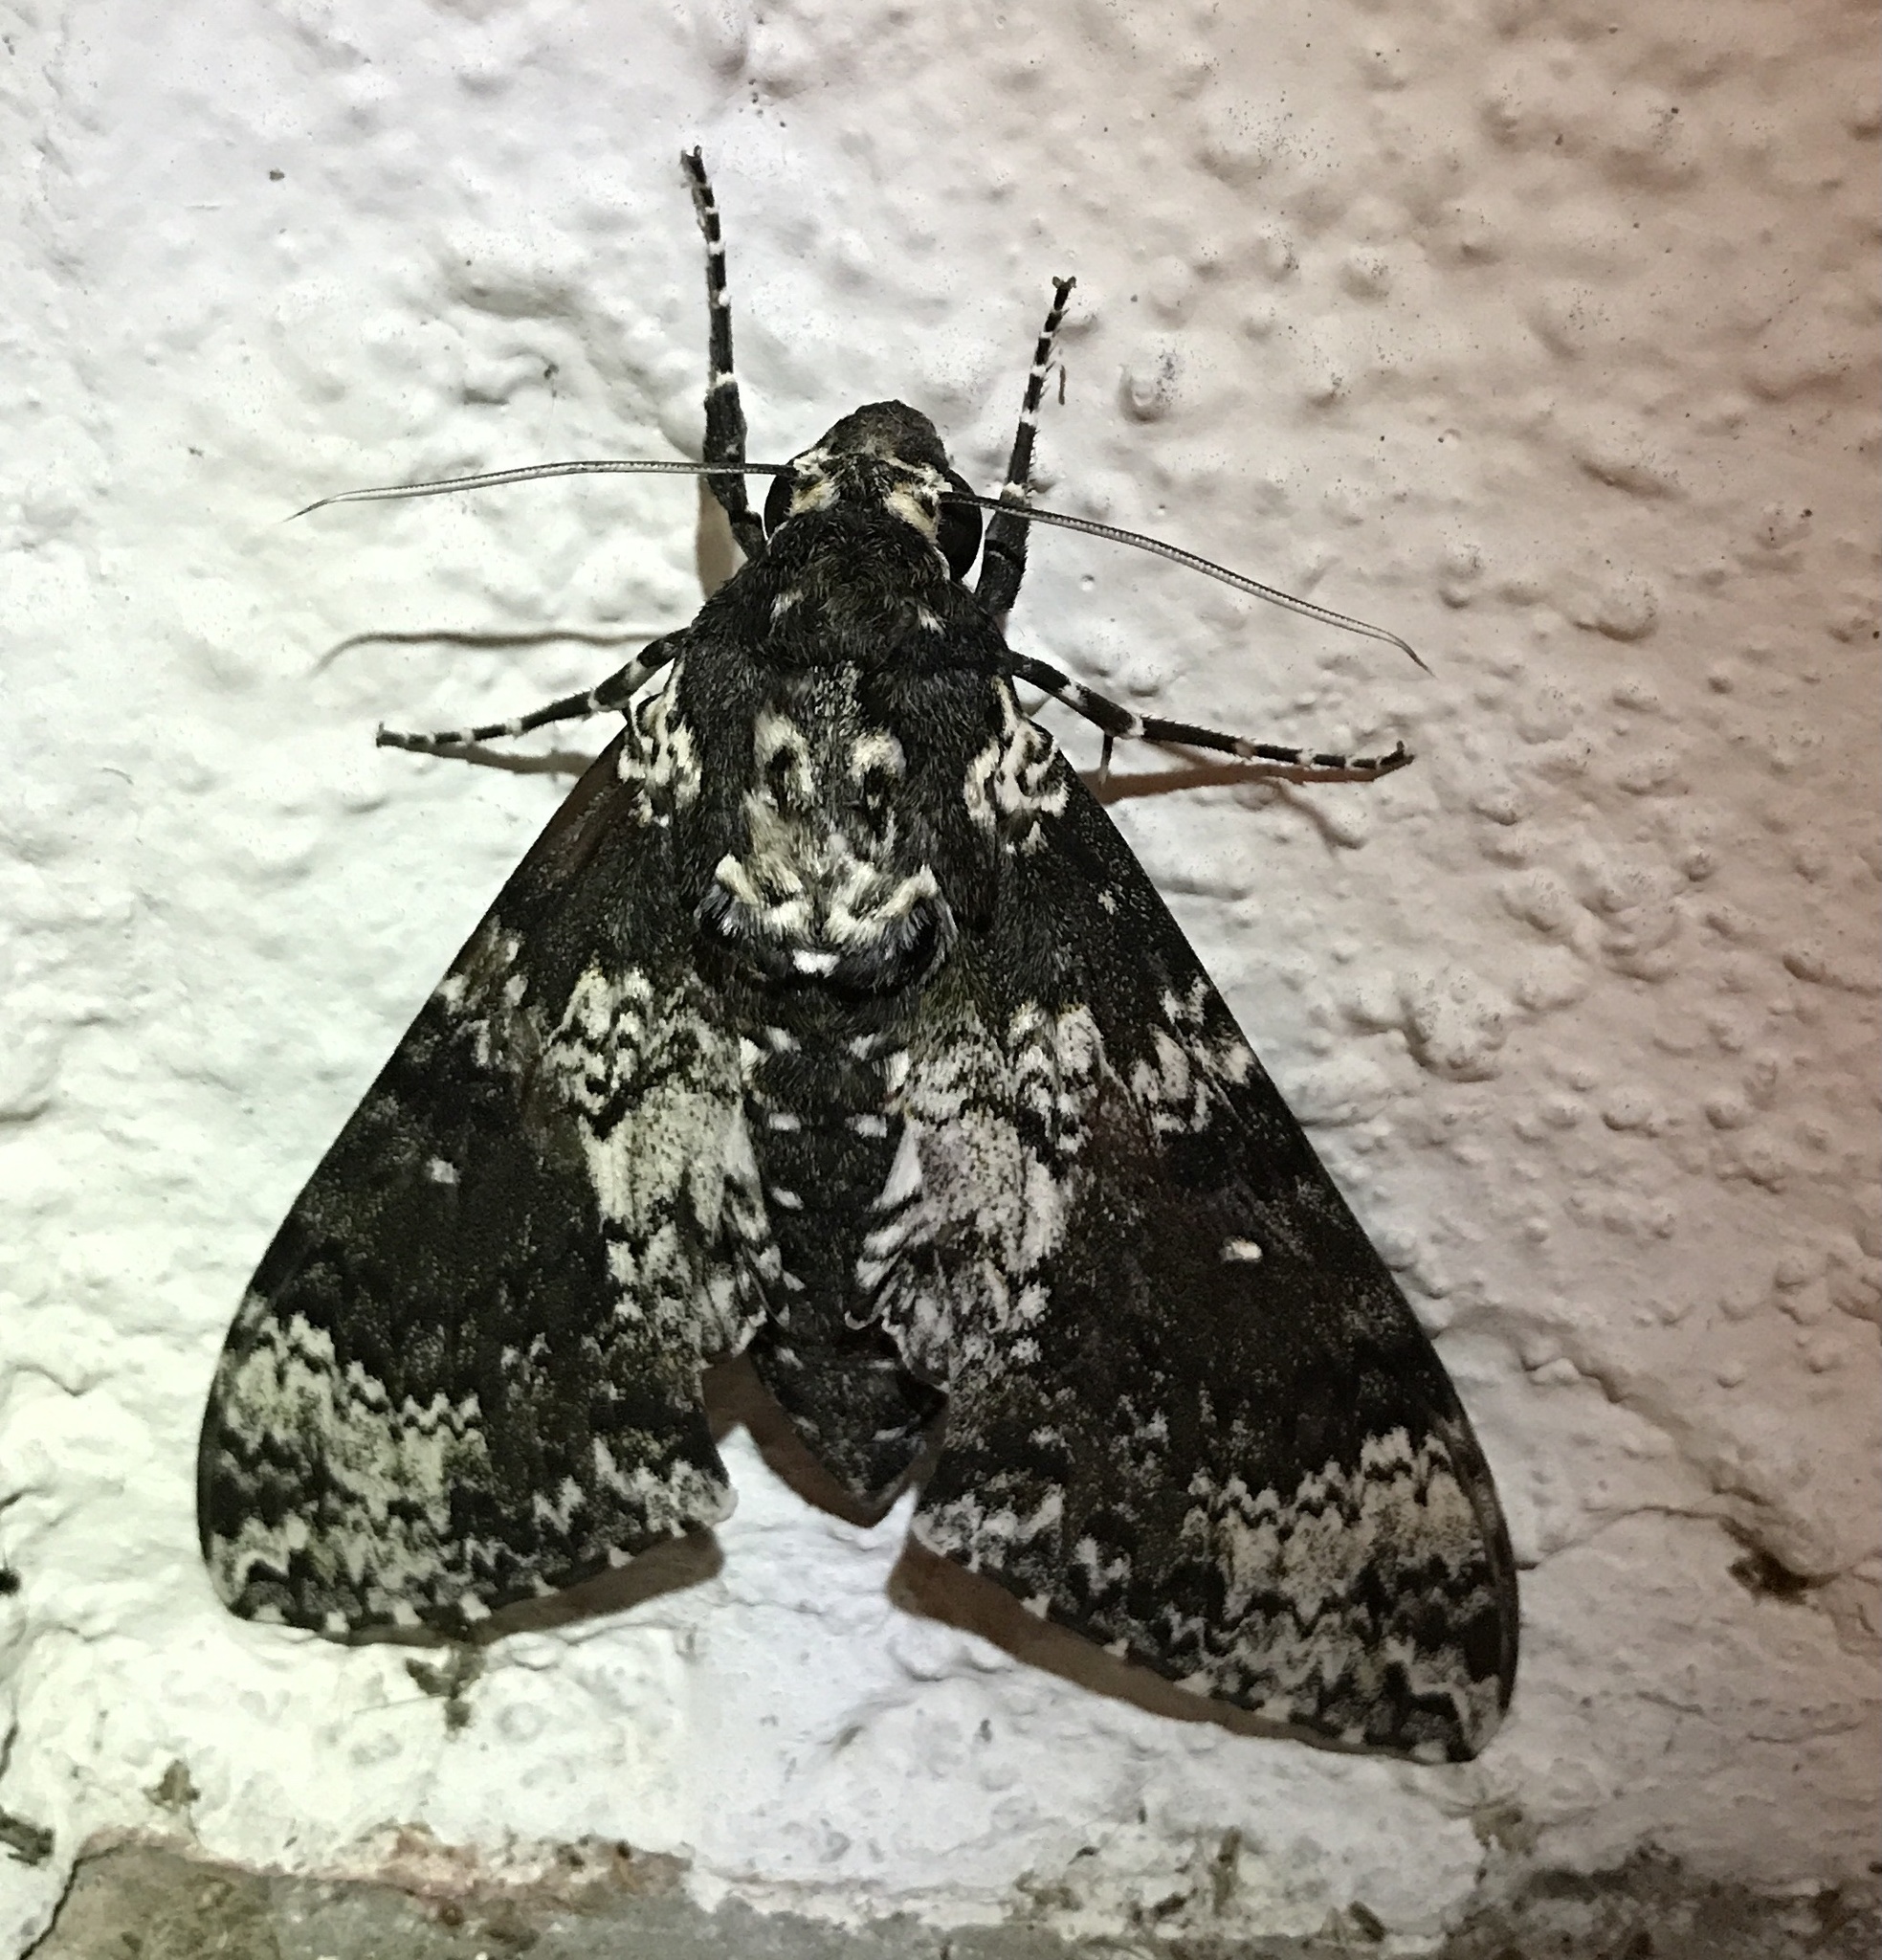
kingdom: Animalia
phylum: Arthropoda
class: Insecta
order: Lepidoptera
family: Sphingidae
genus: Manduca
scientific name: Manduca rustica
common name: Rustic sphinx
